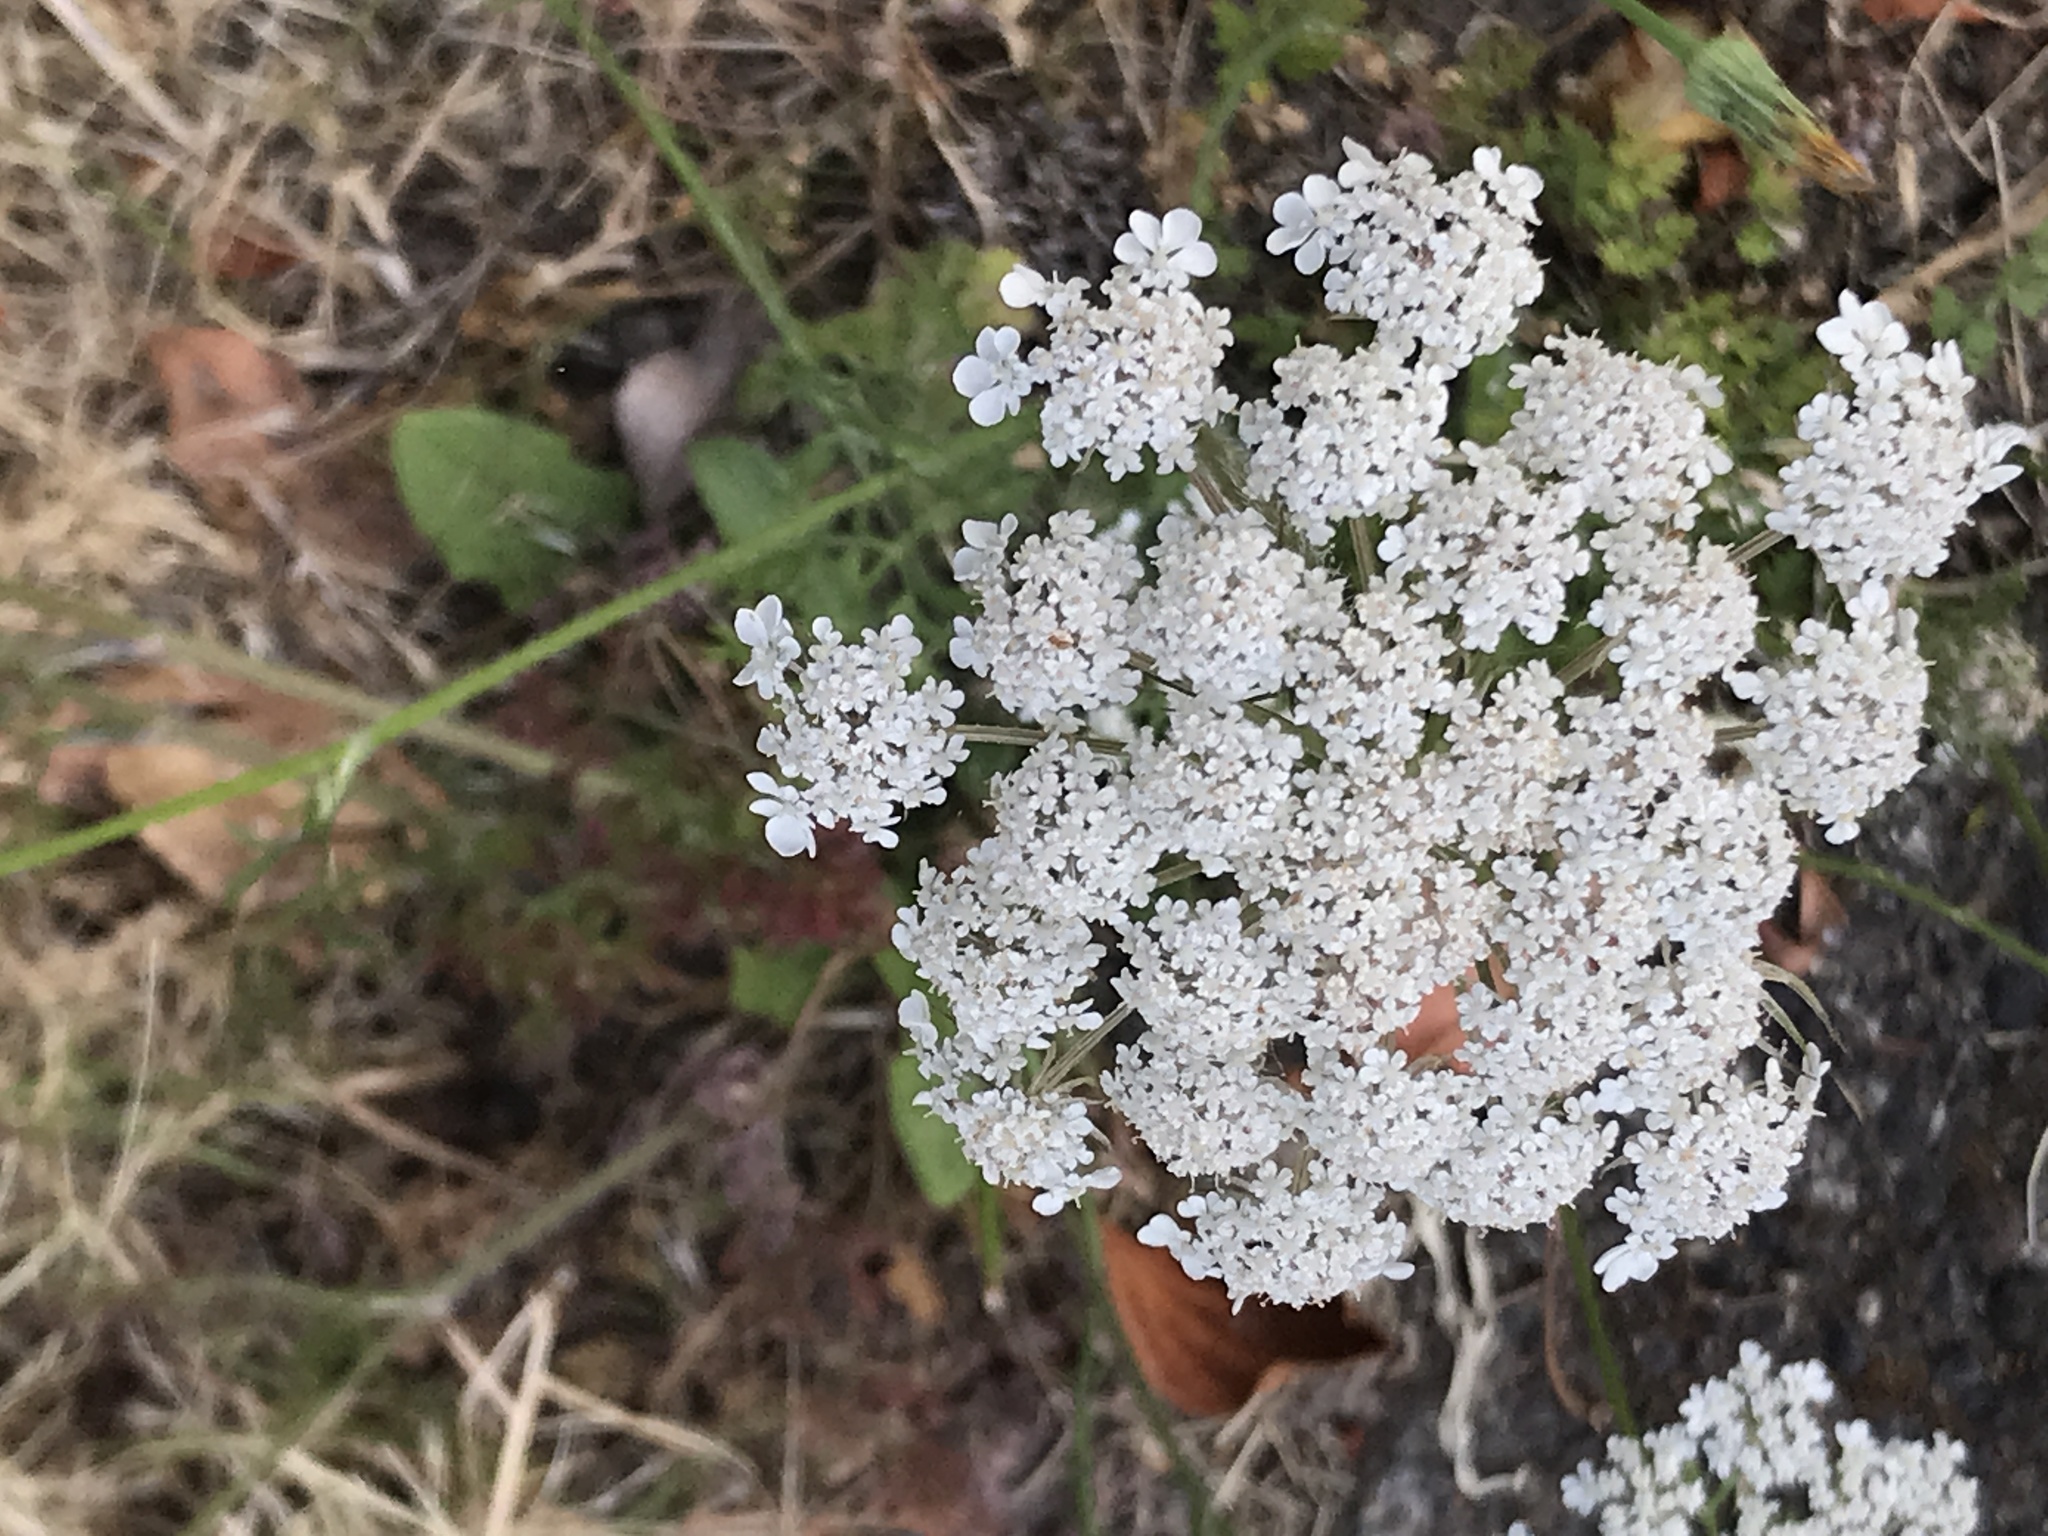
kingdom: Plantae
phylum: Tracheophyta
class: Magnoliopsida
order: Apiales
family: Apiaceae
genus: Daucus
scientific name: Daucus carota
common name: Wild carrot
